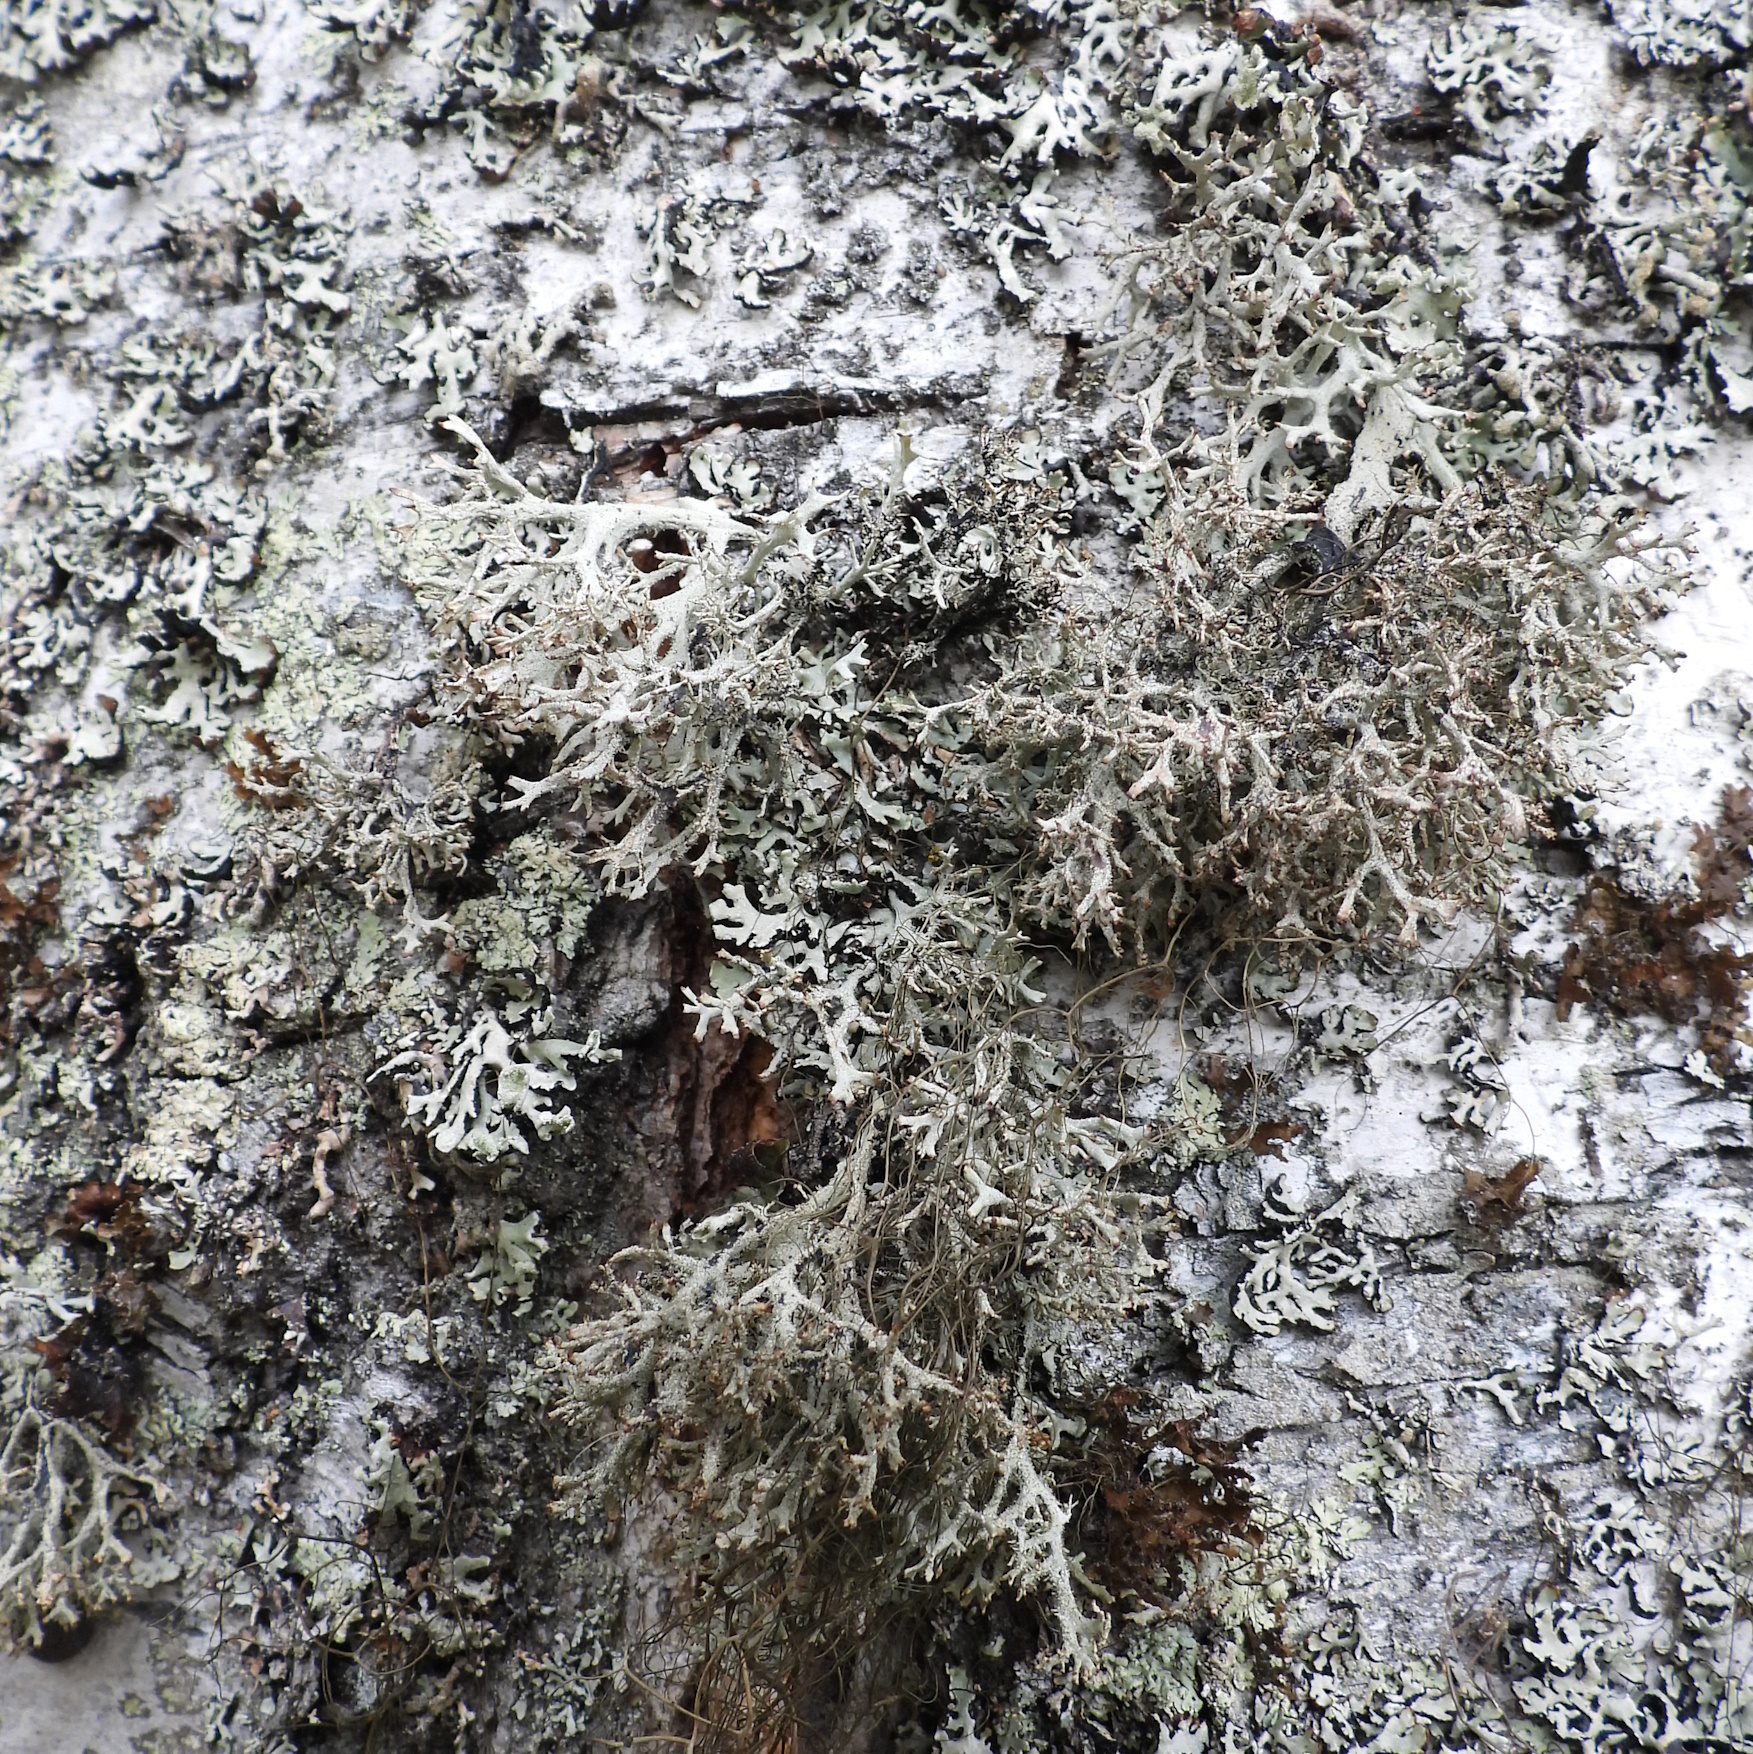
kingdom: Fungi
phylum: Ascomycota
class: Lecanoromycetes
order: Lecanorales
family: Parmeliaceae
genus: Pseudevernia
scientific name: Pseudevernia furfuracea
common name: Tree moss
